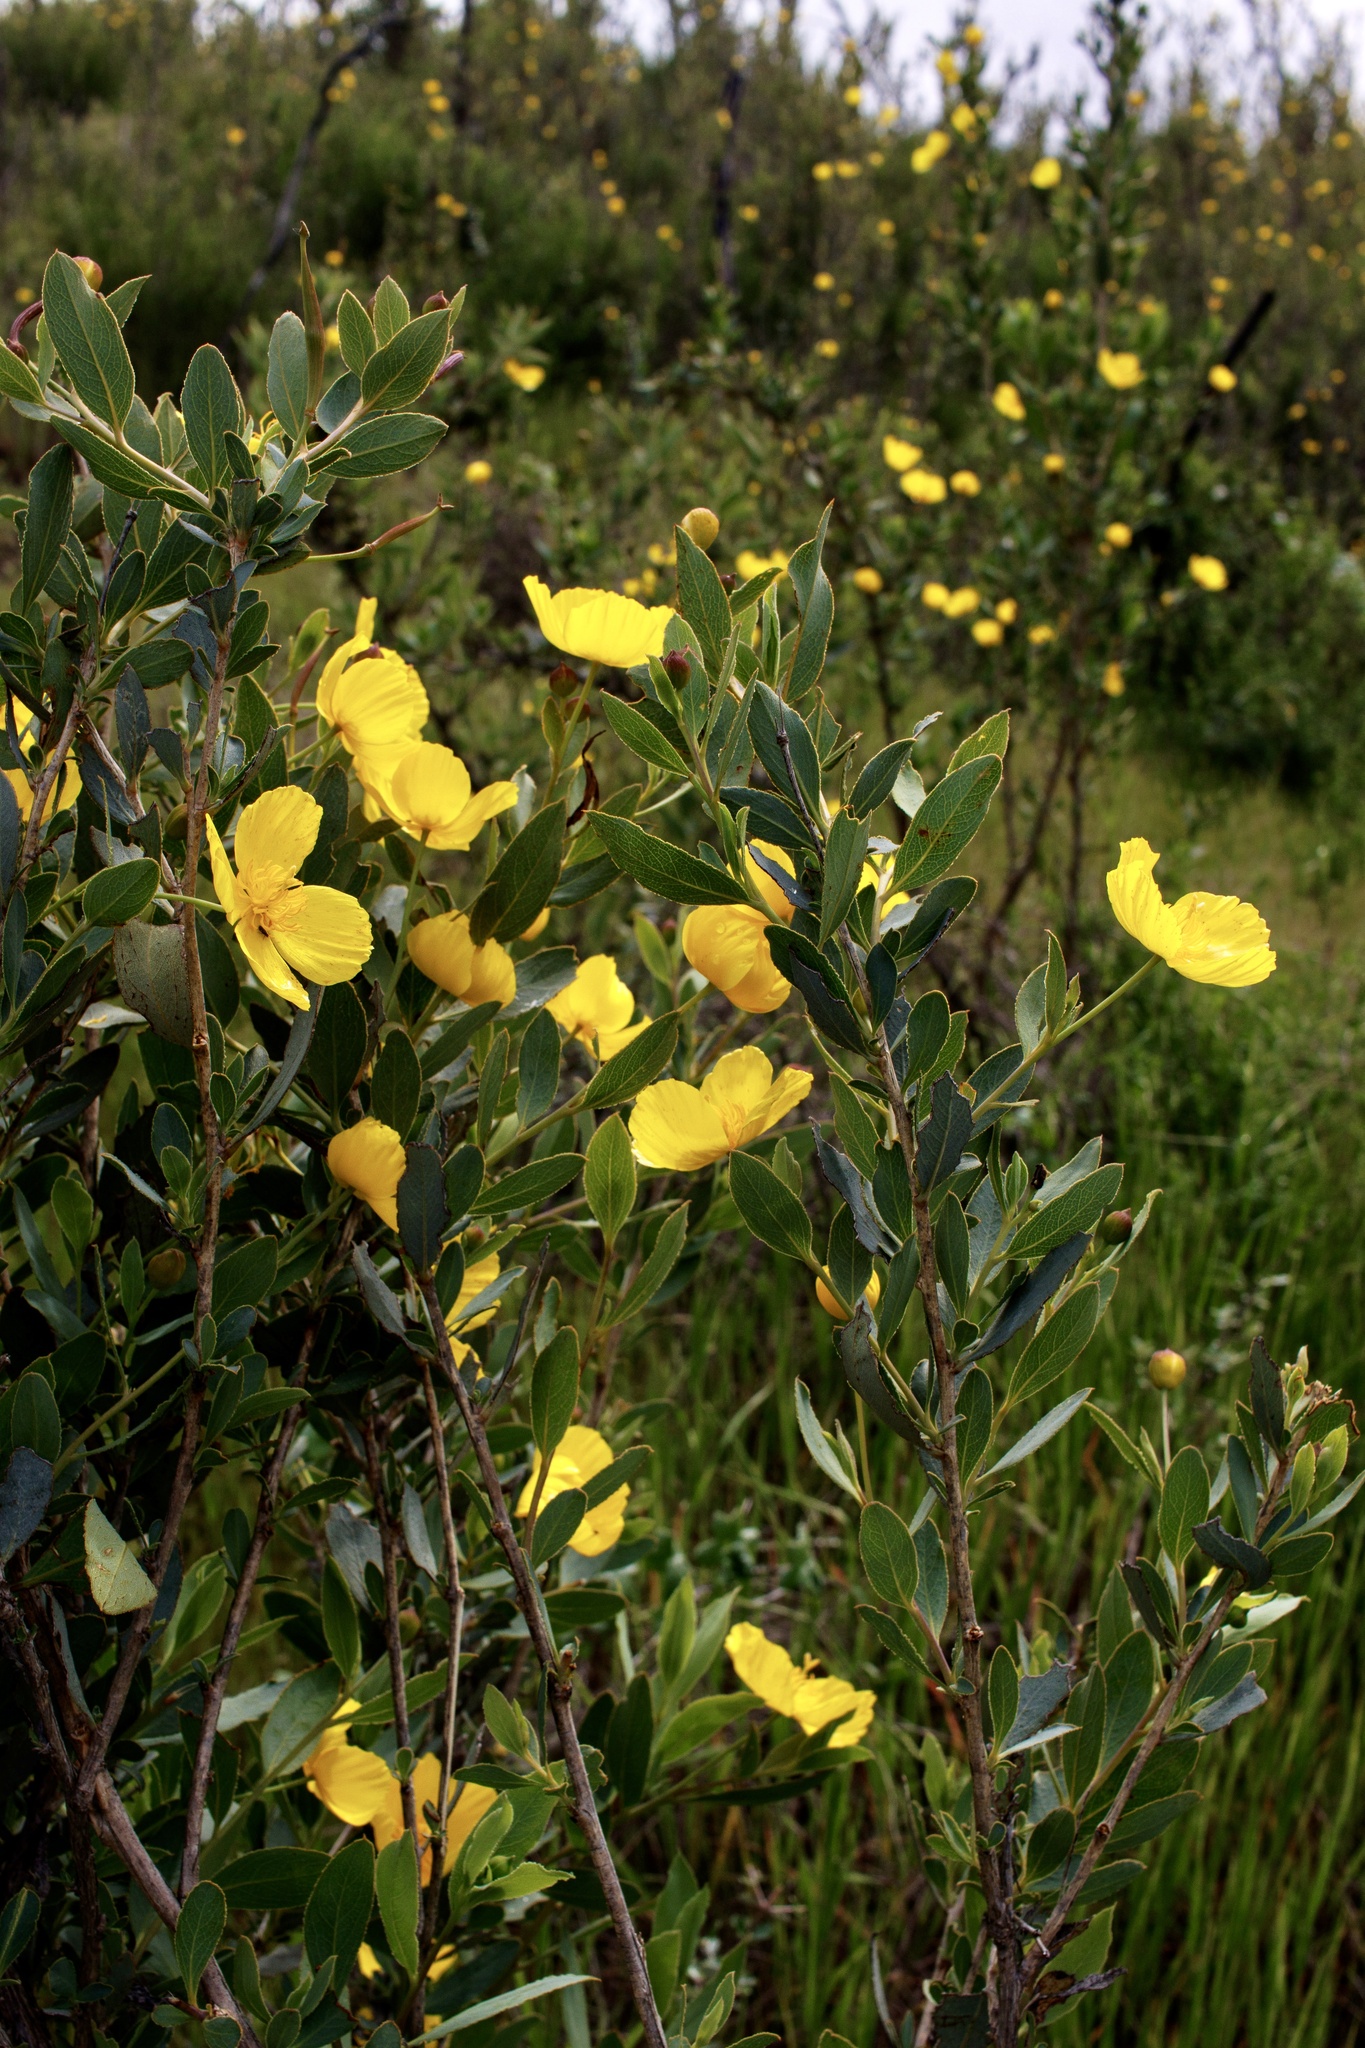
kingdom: Plantae
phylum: Tracheophyta
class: Magnoliopsida
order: Ranunculales
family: Papaveraceae
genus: Dendromecon
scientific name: Dendromecon rigida
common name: Tree poppy
